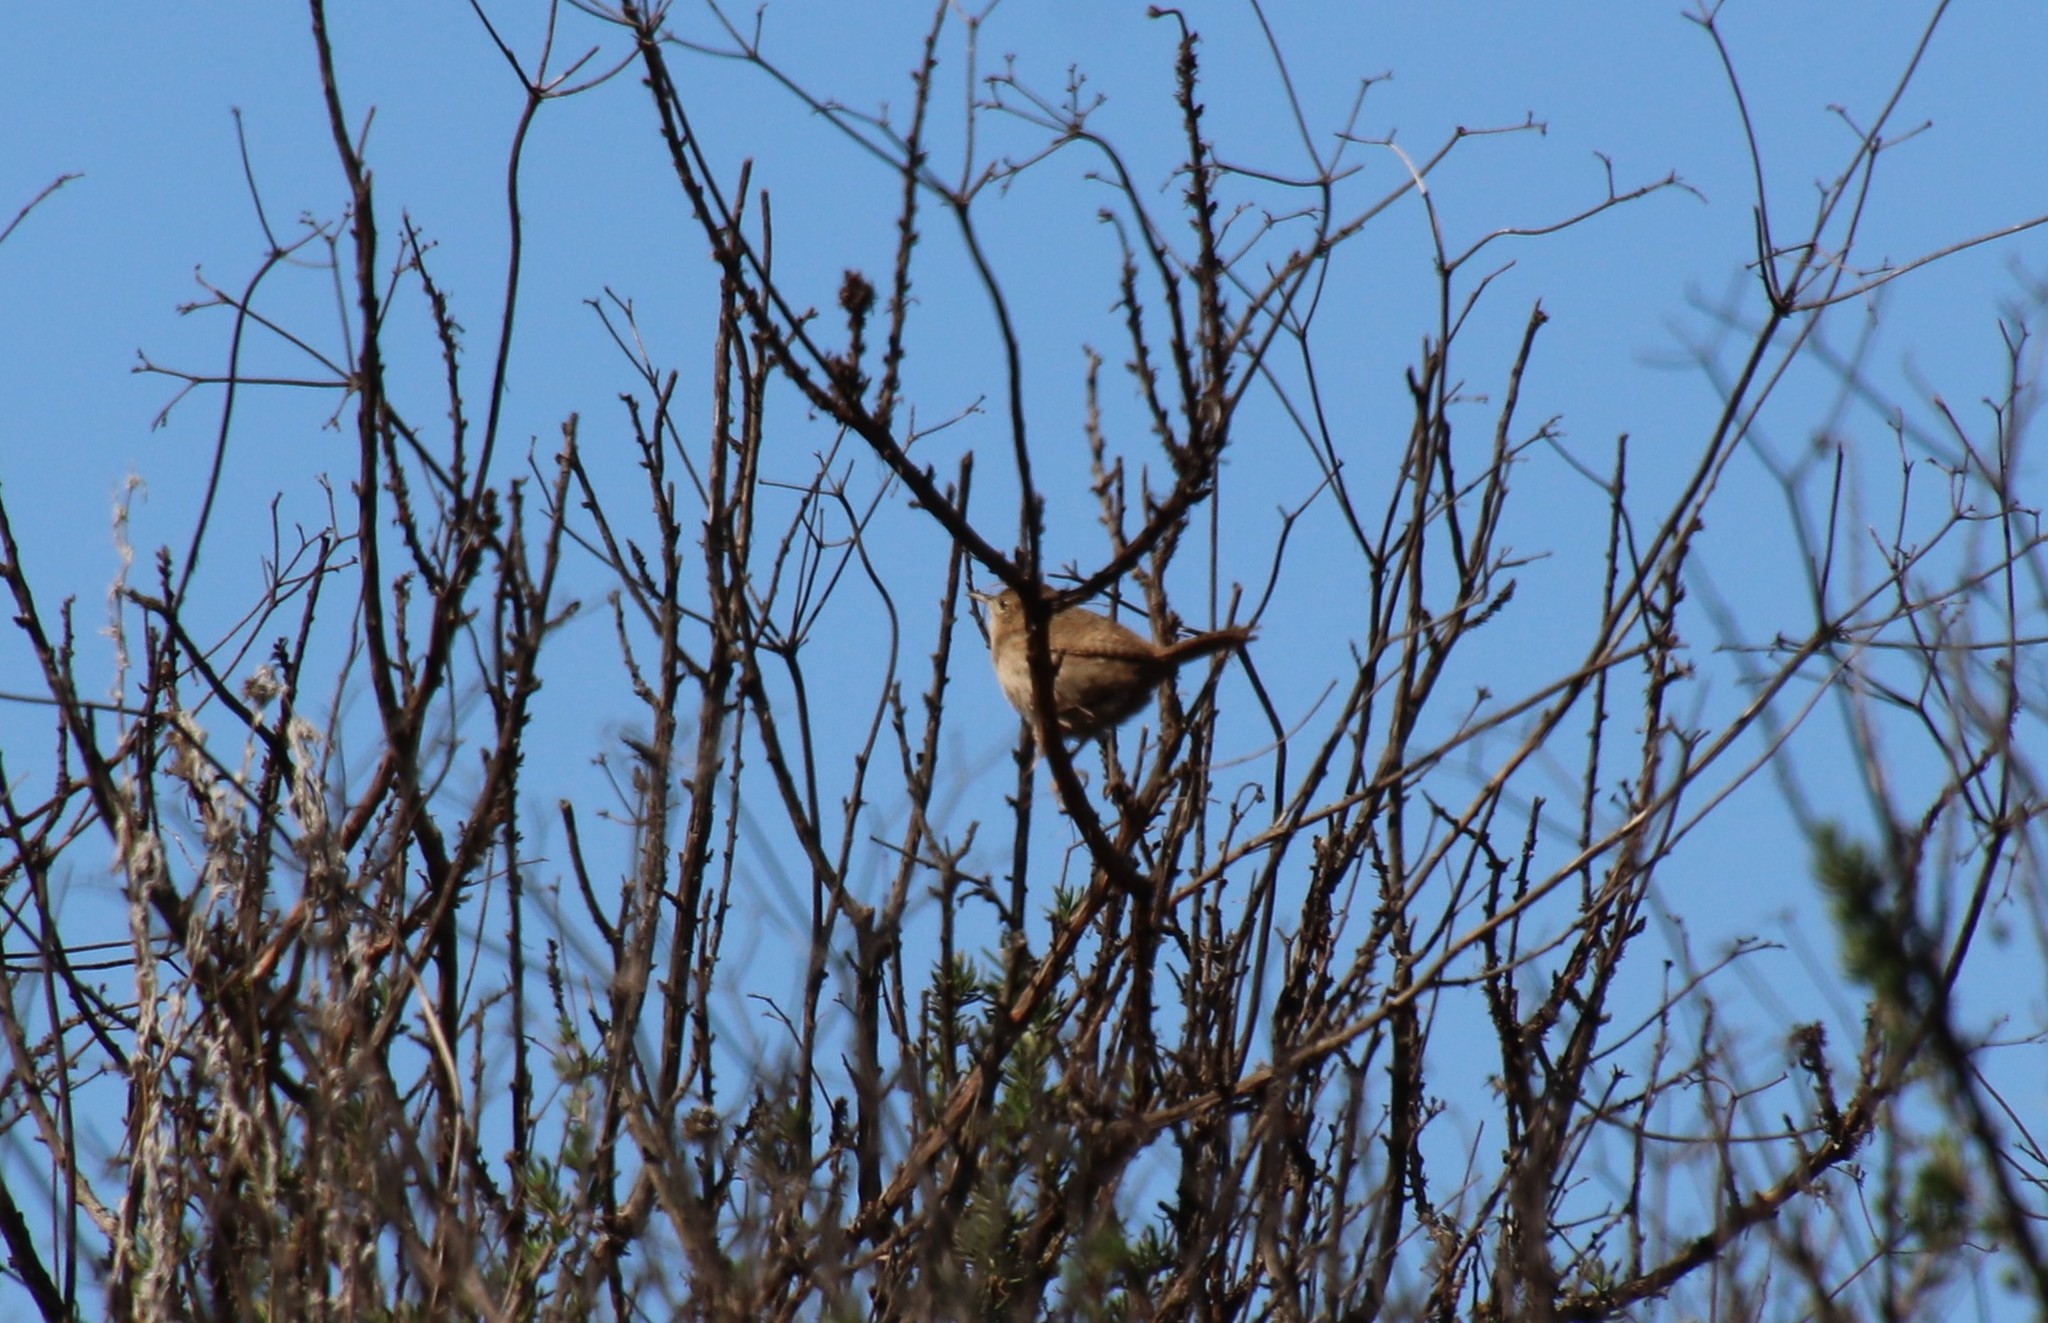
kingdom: Animalia
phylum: Chordata
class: Aves
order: Passeriformes
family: Troglodytidae
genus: Troglodytes
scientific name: Troglodytes aedon
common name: House wren
